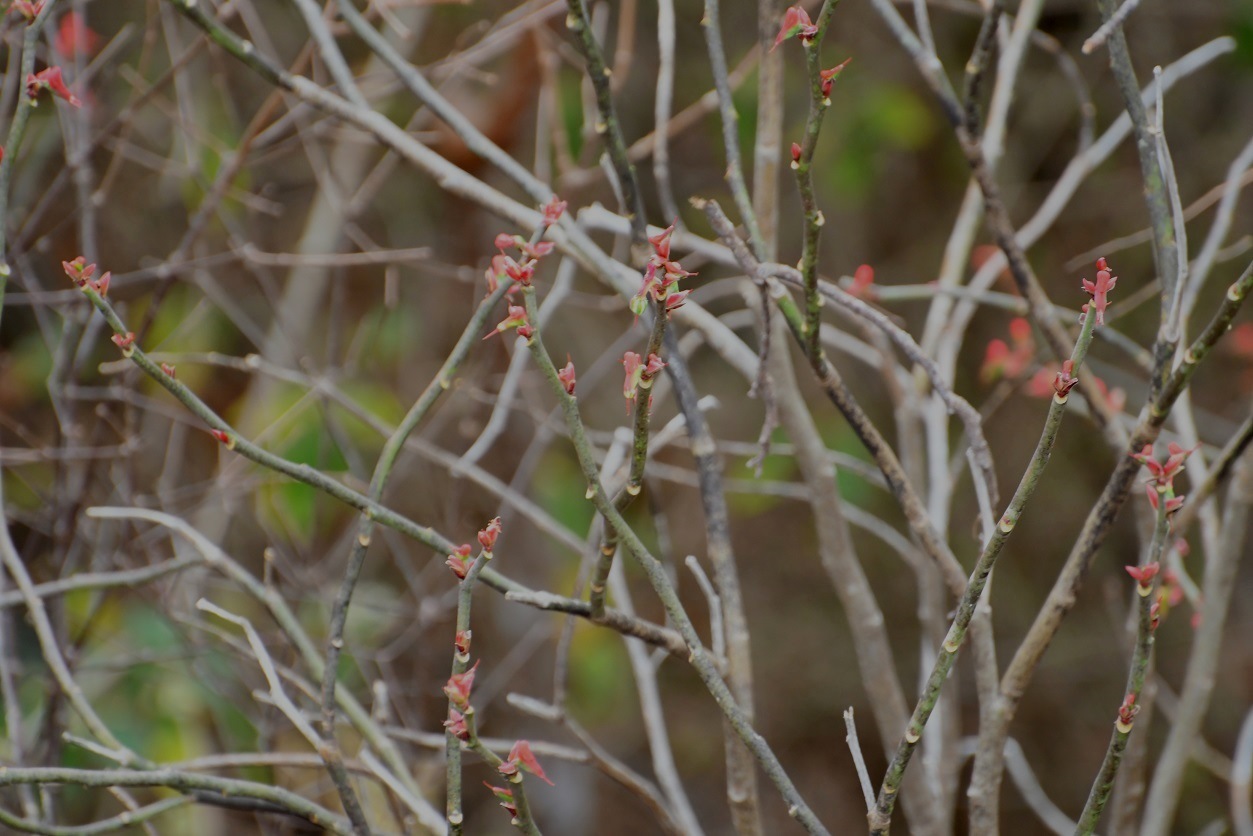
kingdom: Plantae
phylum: Tracheophyta
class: Magnoliopsida
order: Malpighiales
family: Euphorbiaceae
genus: Euphorbia
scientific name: Euphorbia calcarata
